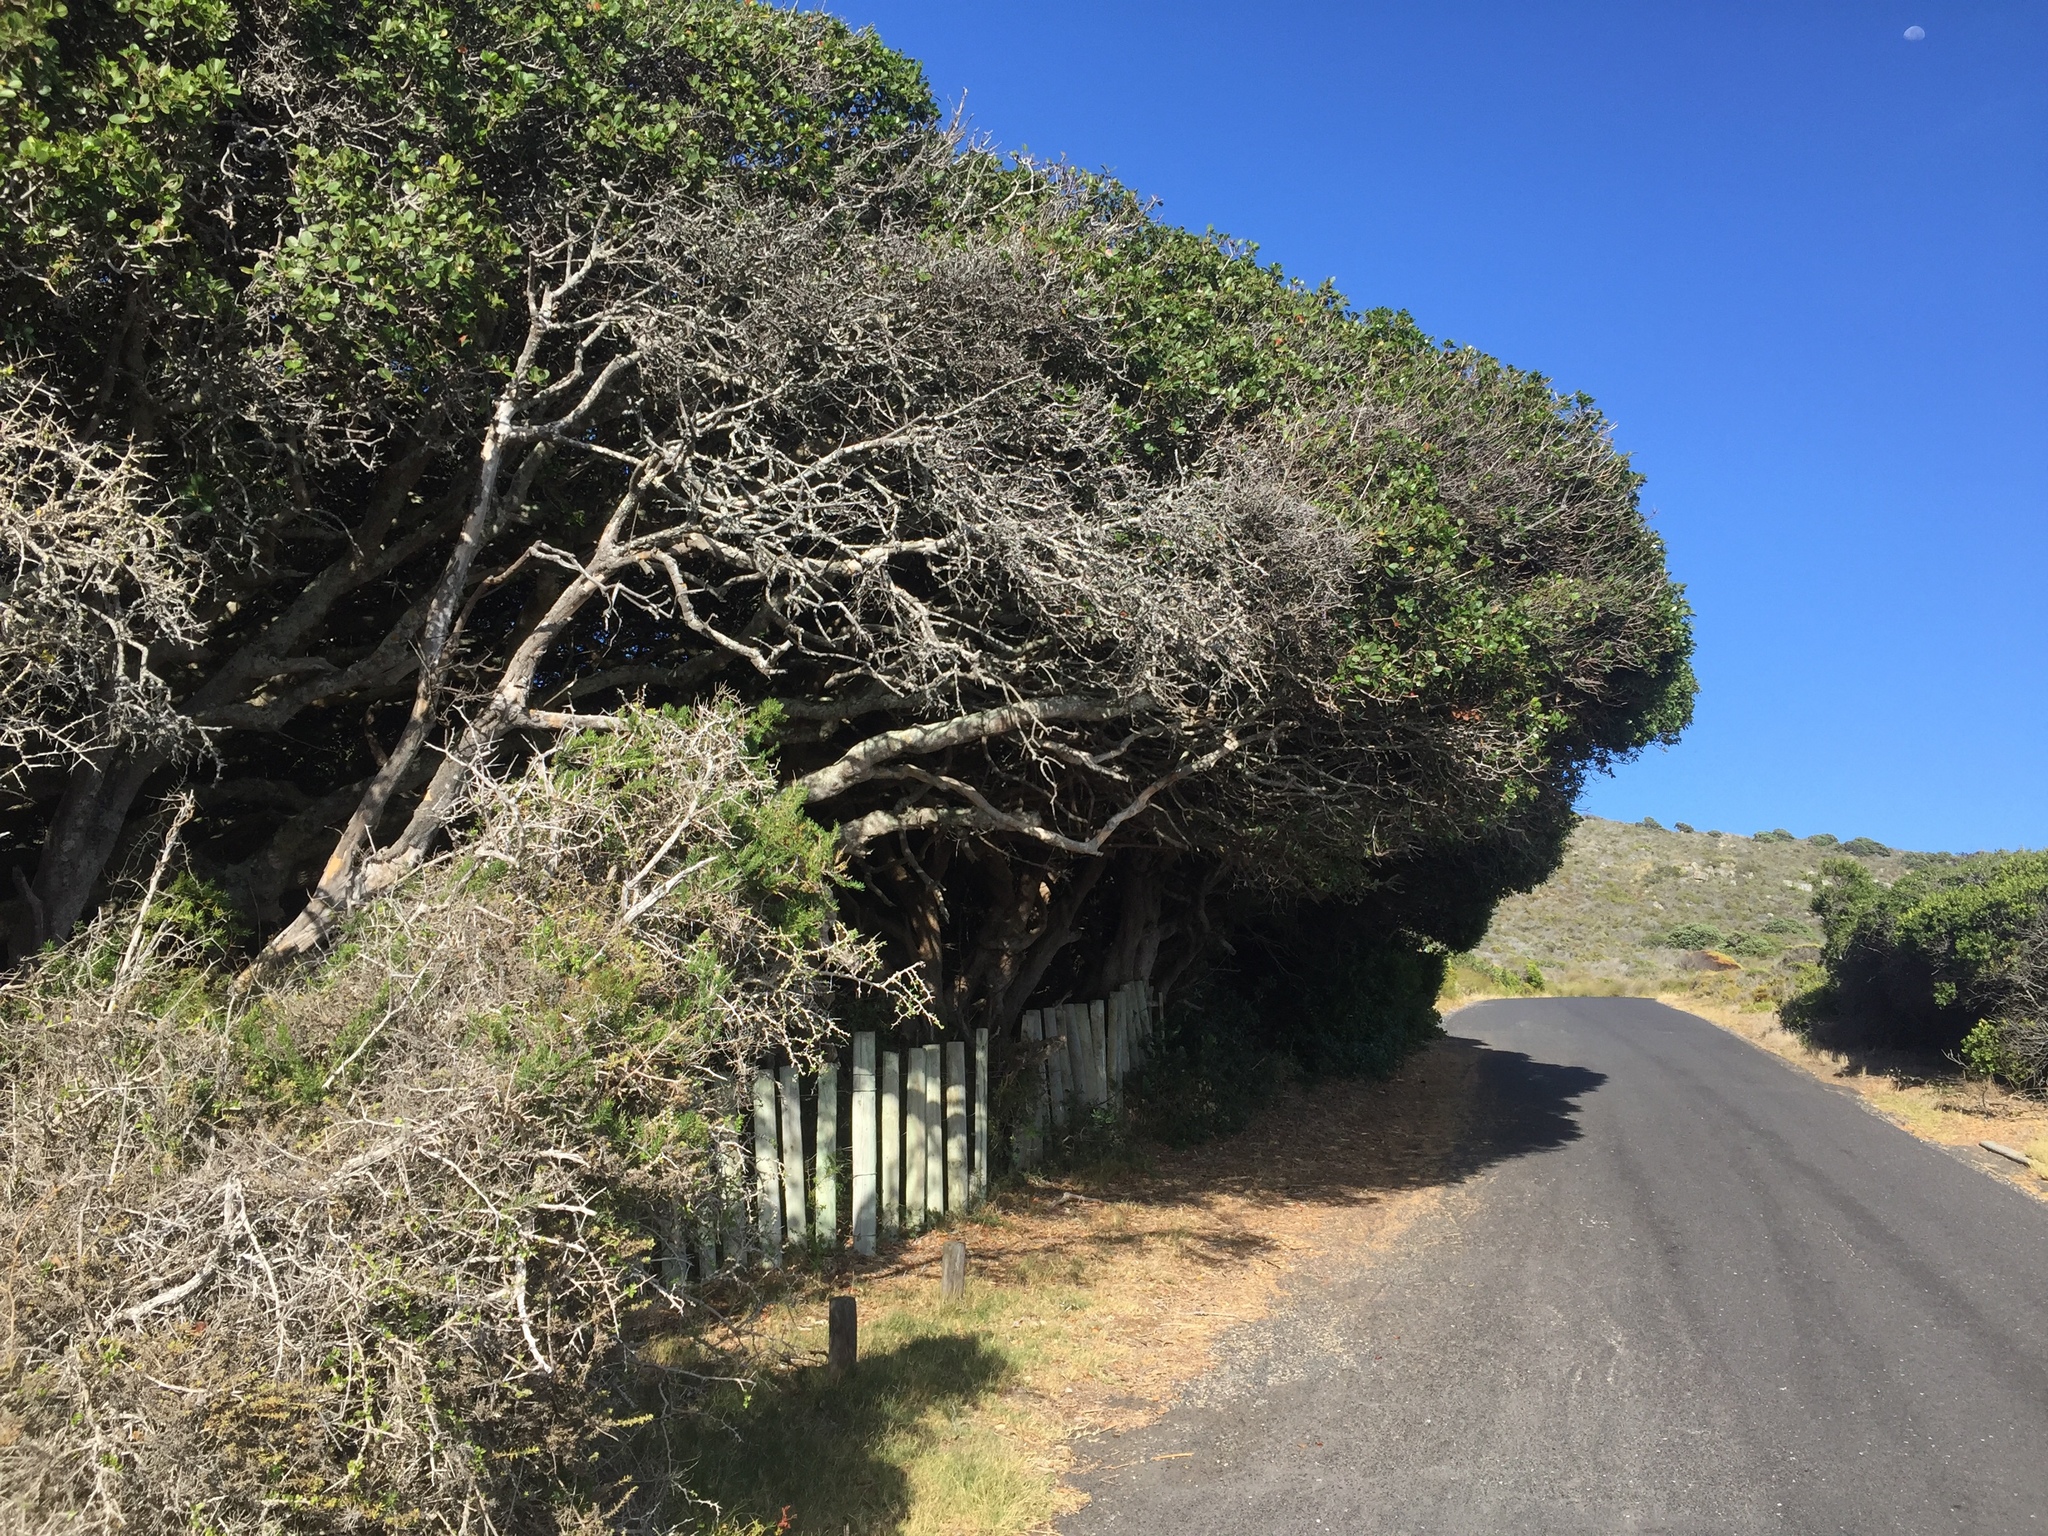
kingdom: Plantae
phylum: Tracheophyta
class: Magnoliopsida
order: Ericales
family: Sapotaceae
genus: Sideroxylon
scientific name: Sideroxylon inerme
